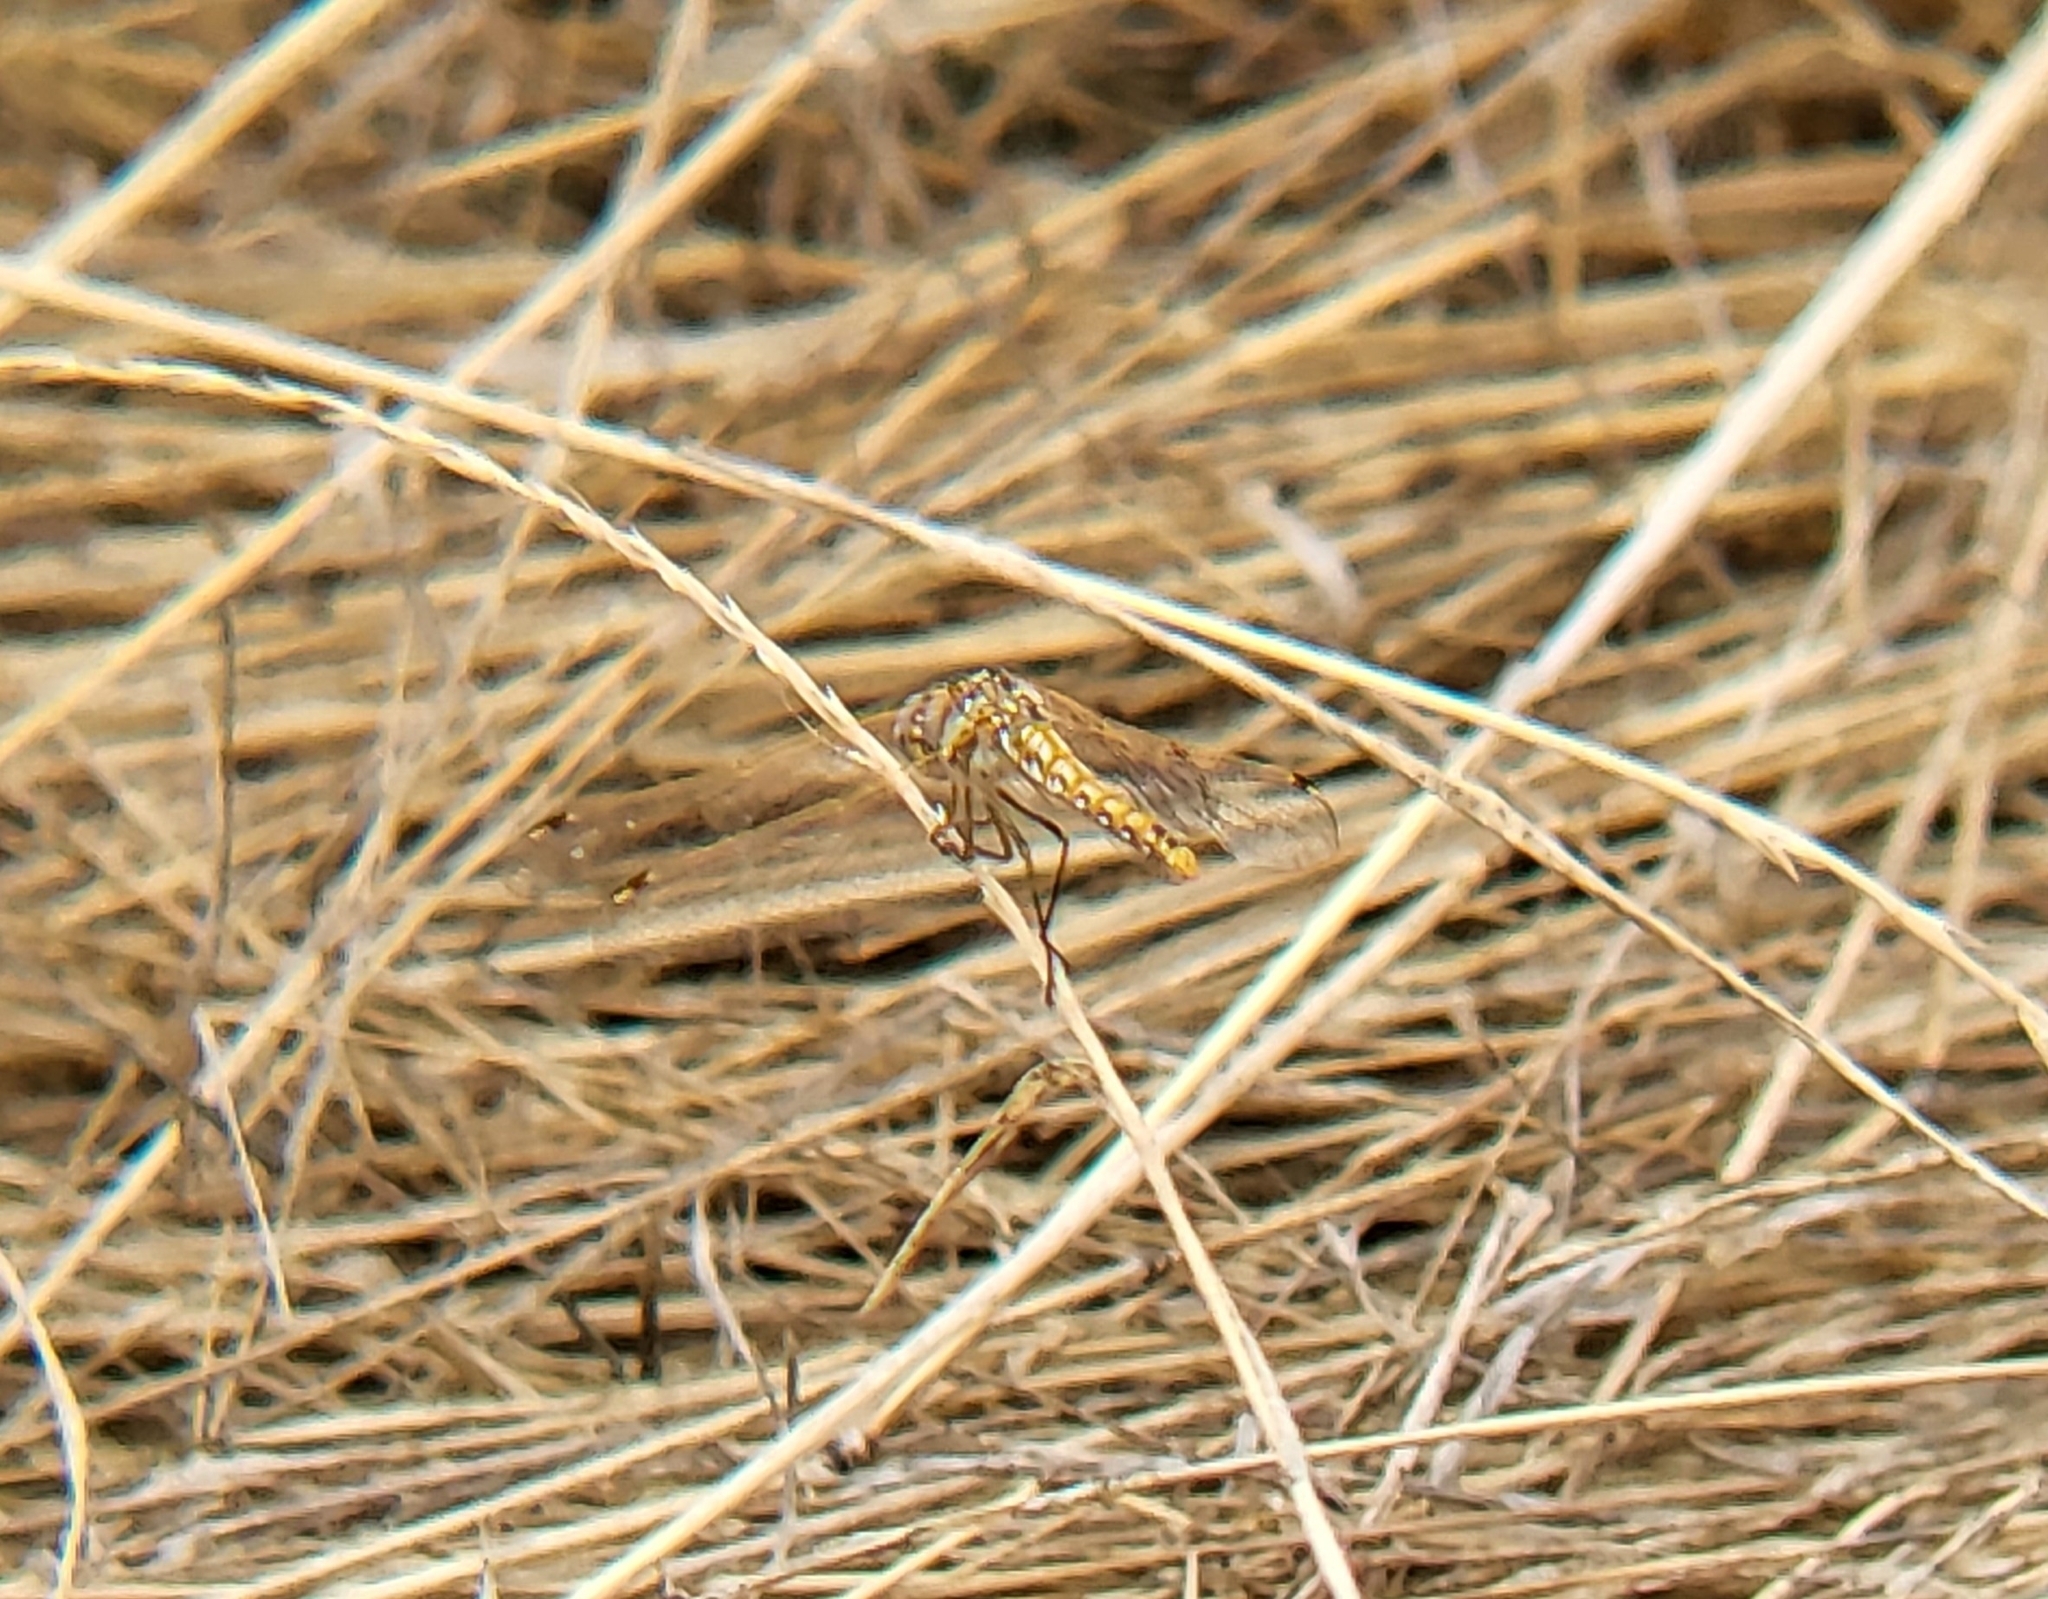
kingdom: Animalia
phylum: Arthropoda
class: Insecta
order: Odonata
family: Libellulidae
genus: Sympetrum
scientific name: Sympetrum corruptum
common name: Variegated meadowhawk
